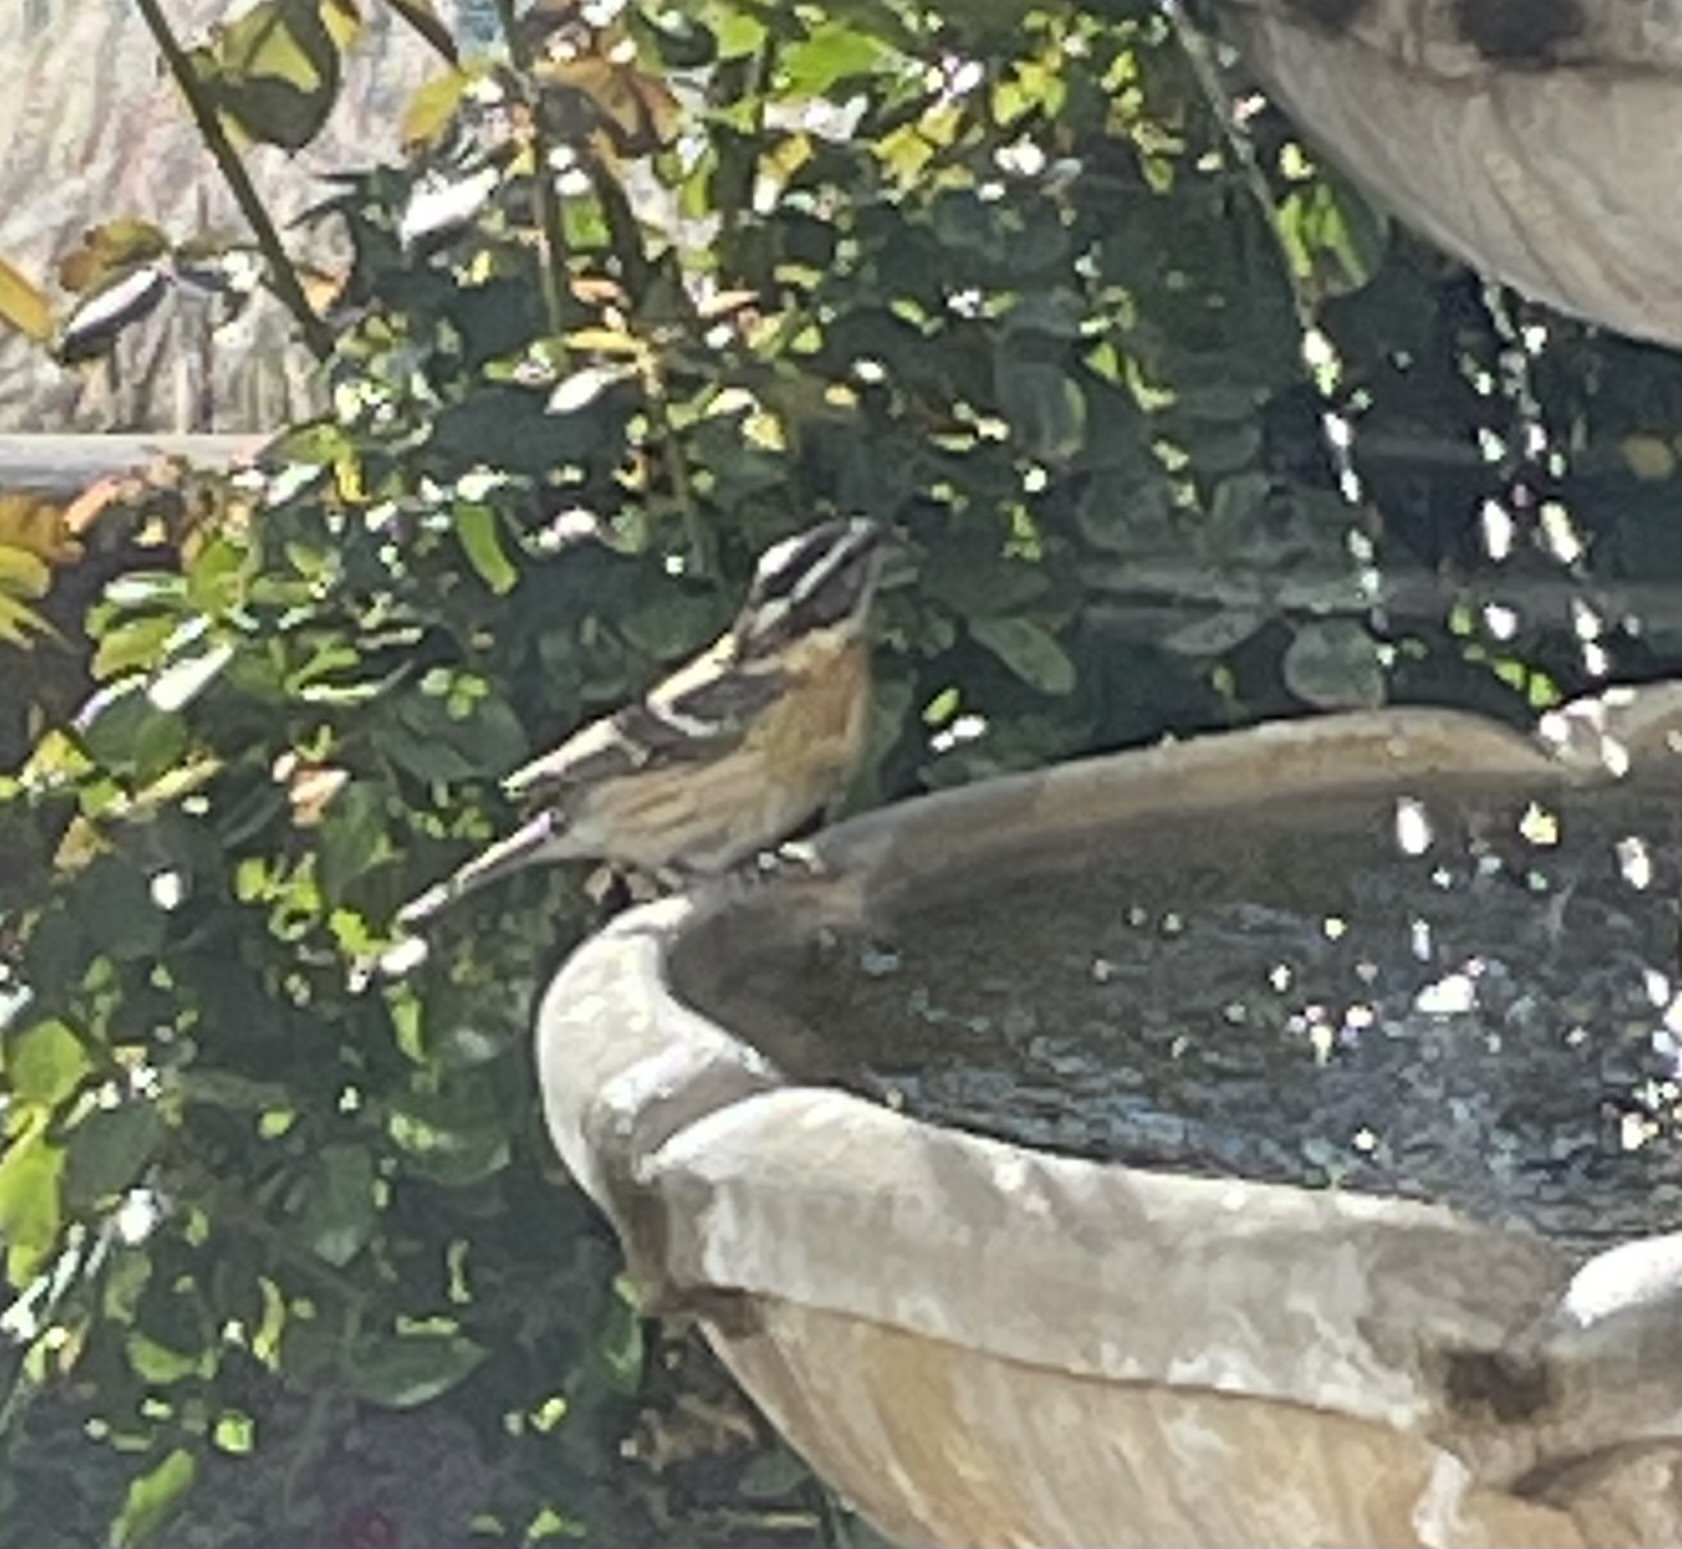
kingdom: Animalia
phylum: Chordata
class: Aves
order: Passeriformes
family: Cardinalidae
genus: Pheucticus
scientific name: Pheucticus melanocephalus
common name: Black-headed grosbeak
